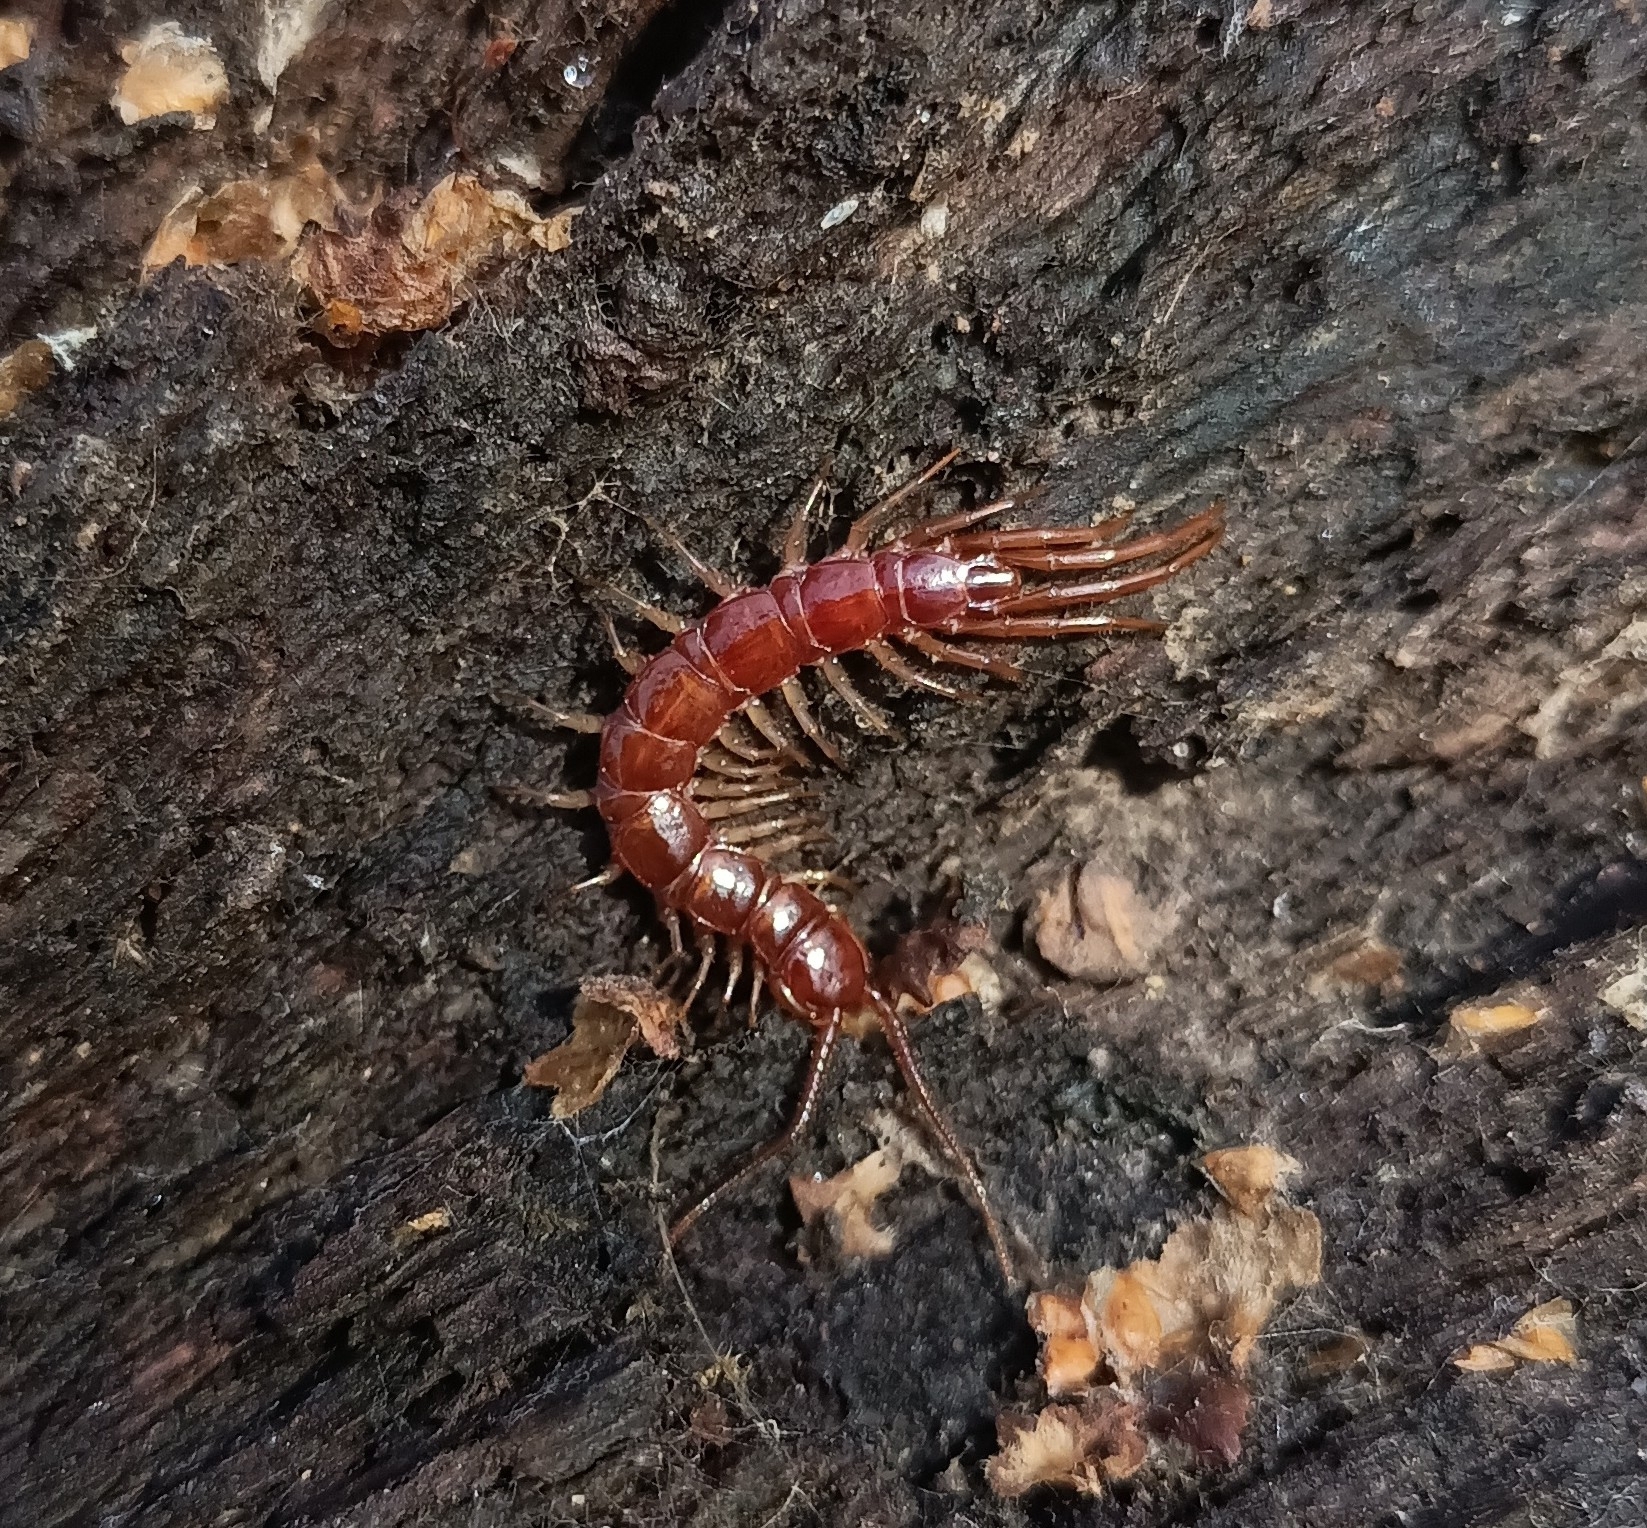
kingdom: Animalia
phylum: Arthropoda
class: Chilopoda
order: Lithobiomorpha
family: Lithobiidae
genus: Lithobius
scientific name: Lithobius forficatus
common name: Centipede
